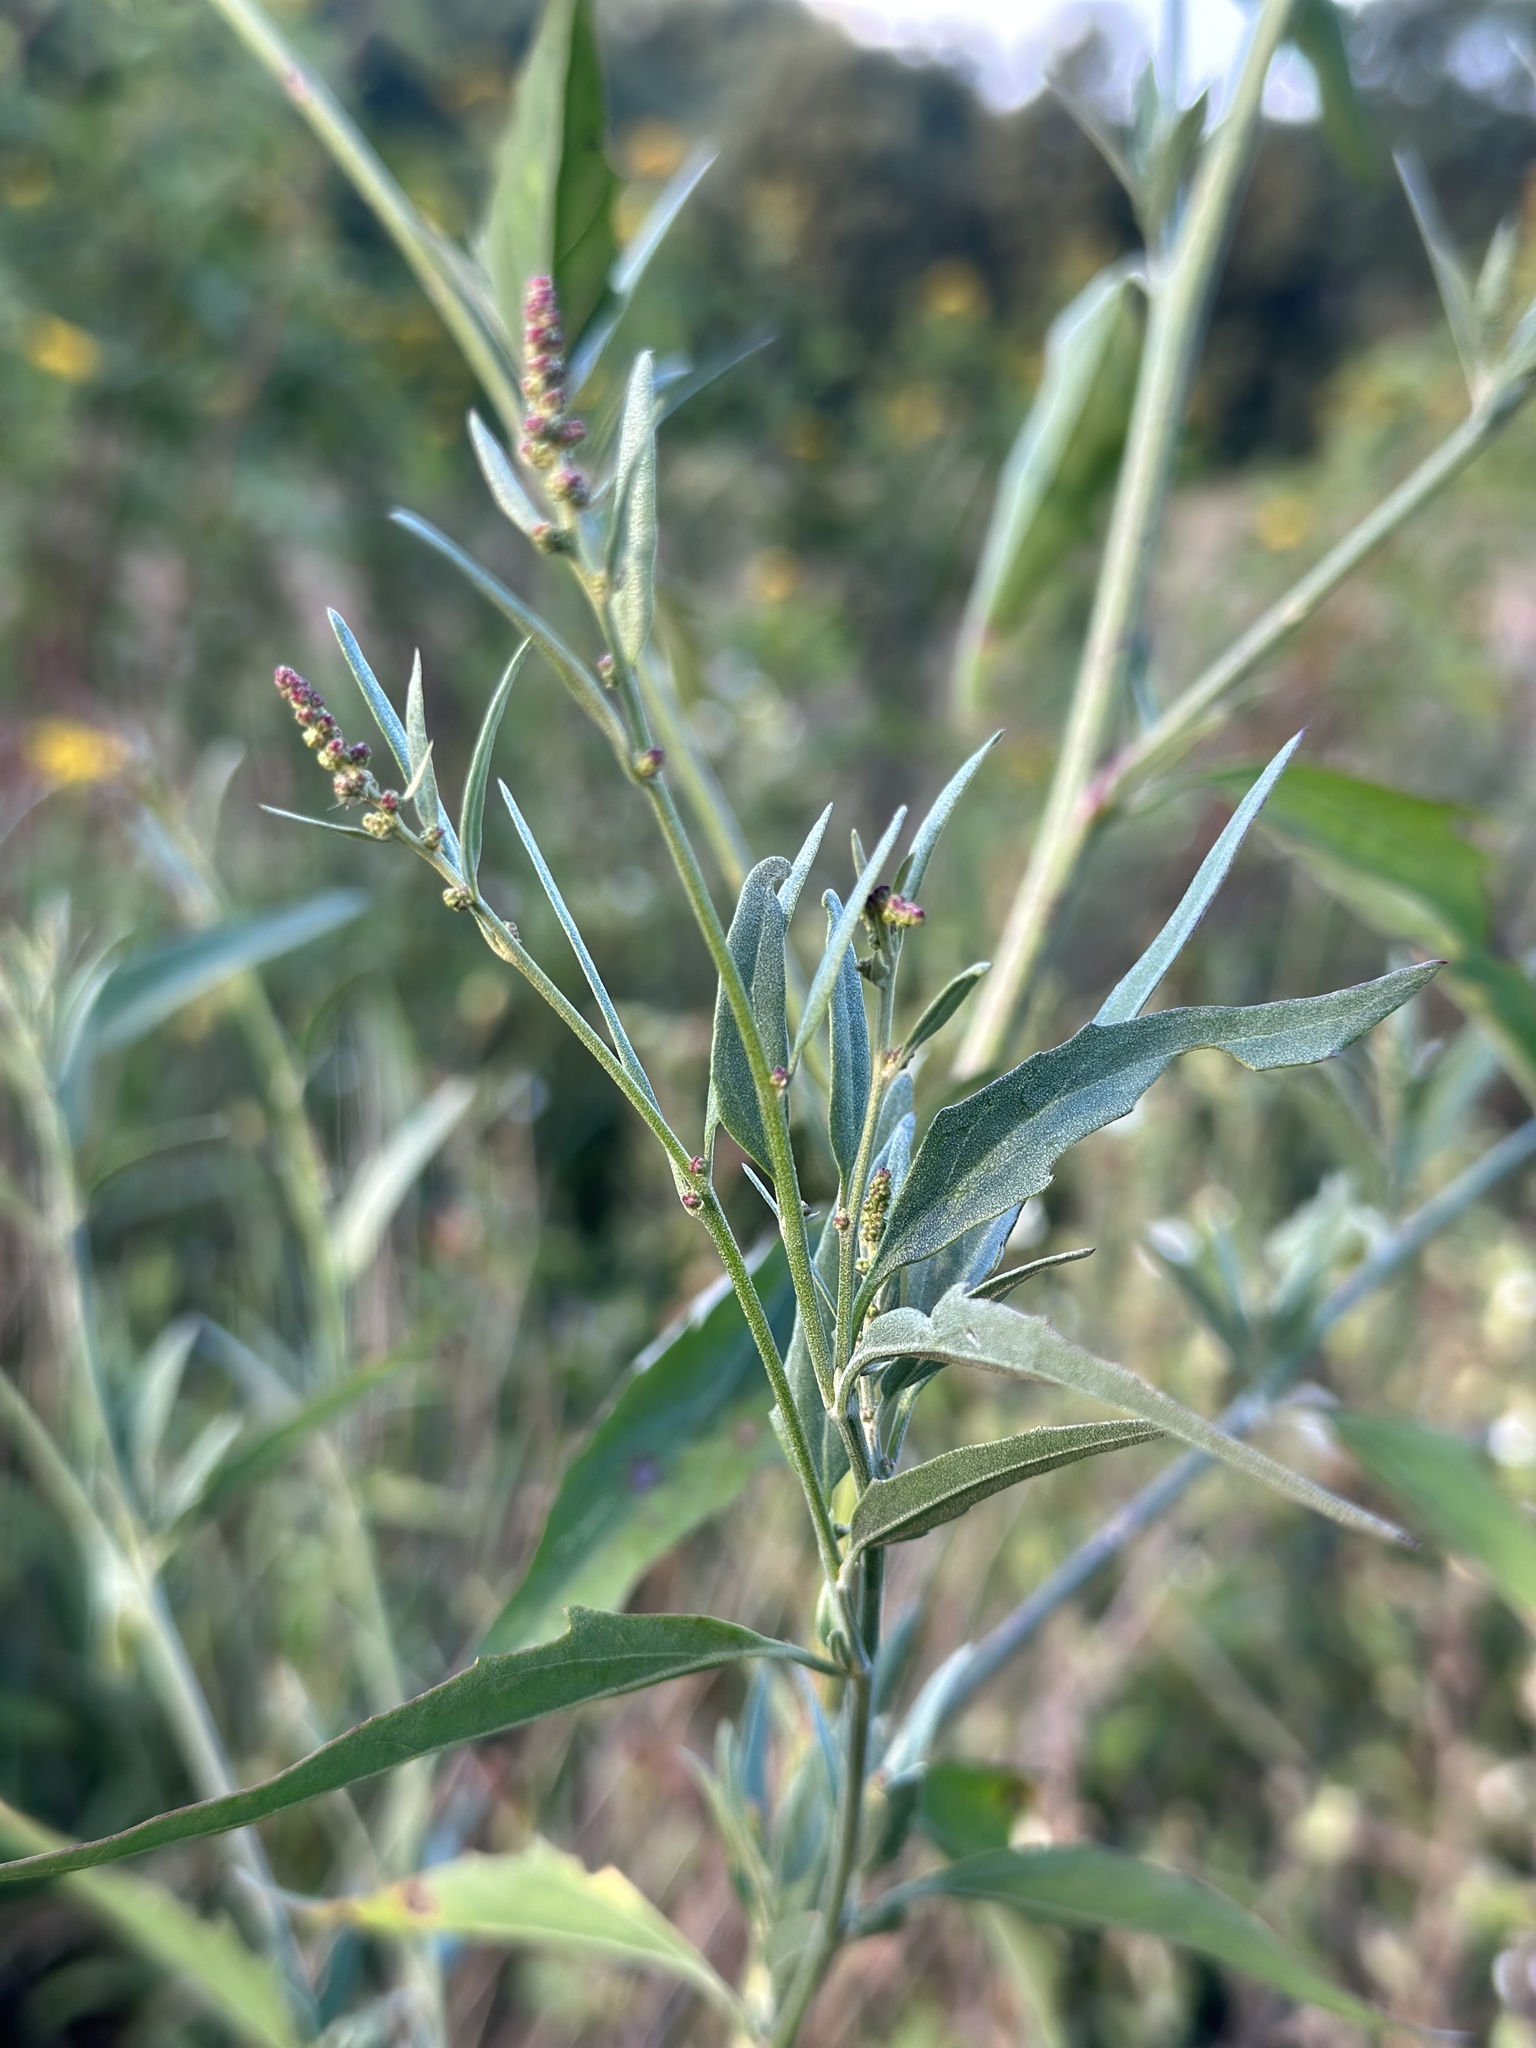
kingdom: Plantae
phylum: Tracheophyta
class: Magnoliopsida
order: Caryophyllales
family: Amaranthaceae
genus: Atriplex
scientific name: Atriplex oblongifolia
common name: Oblongleaf orache
